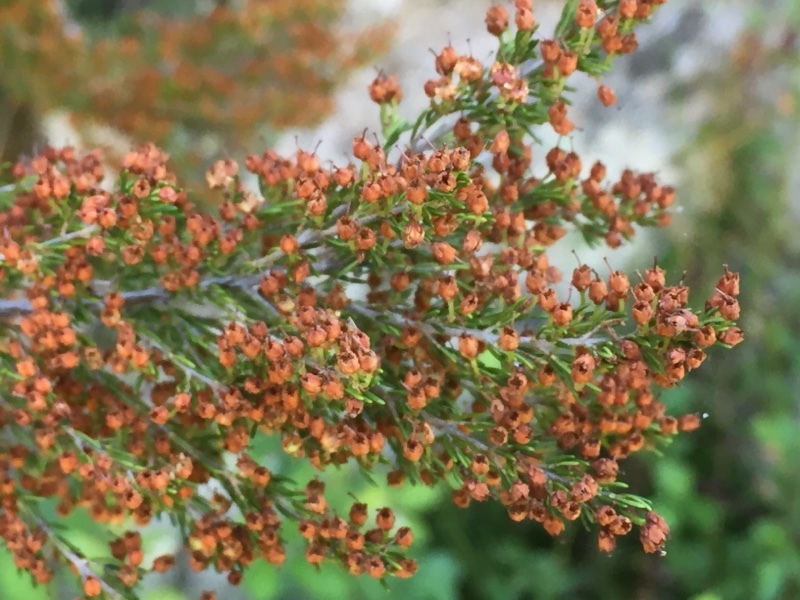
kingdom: Plantae
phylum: Tracheophyta
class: Magnoliopsida
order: Ericales
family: Ericaceae
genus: Erica
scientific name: Erica arborea
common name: Tree heath
